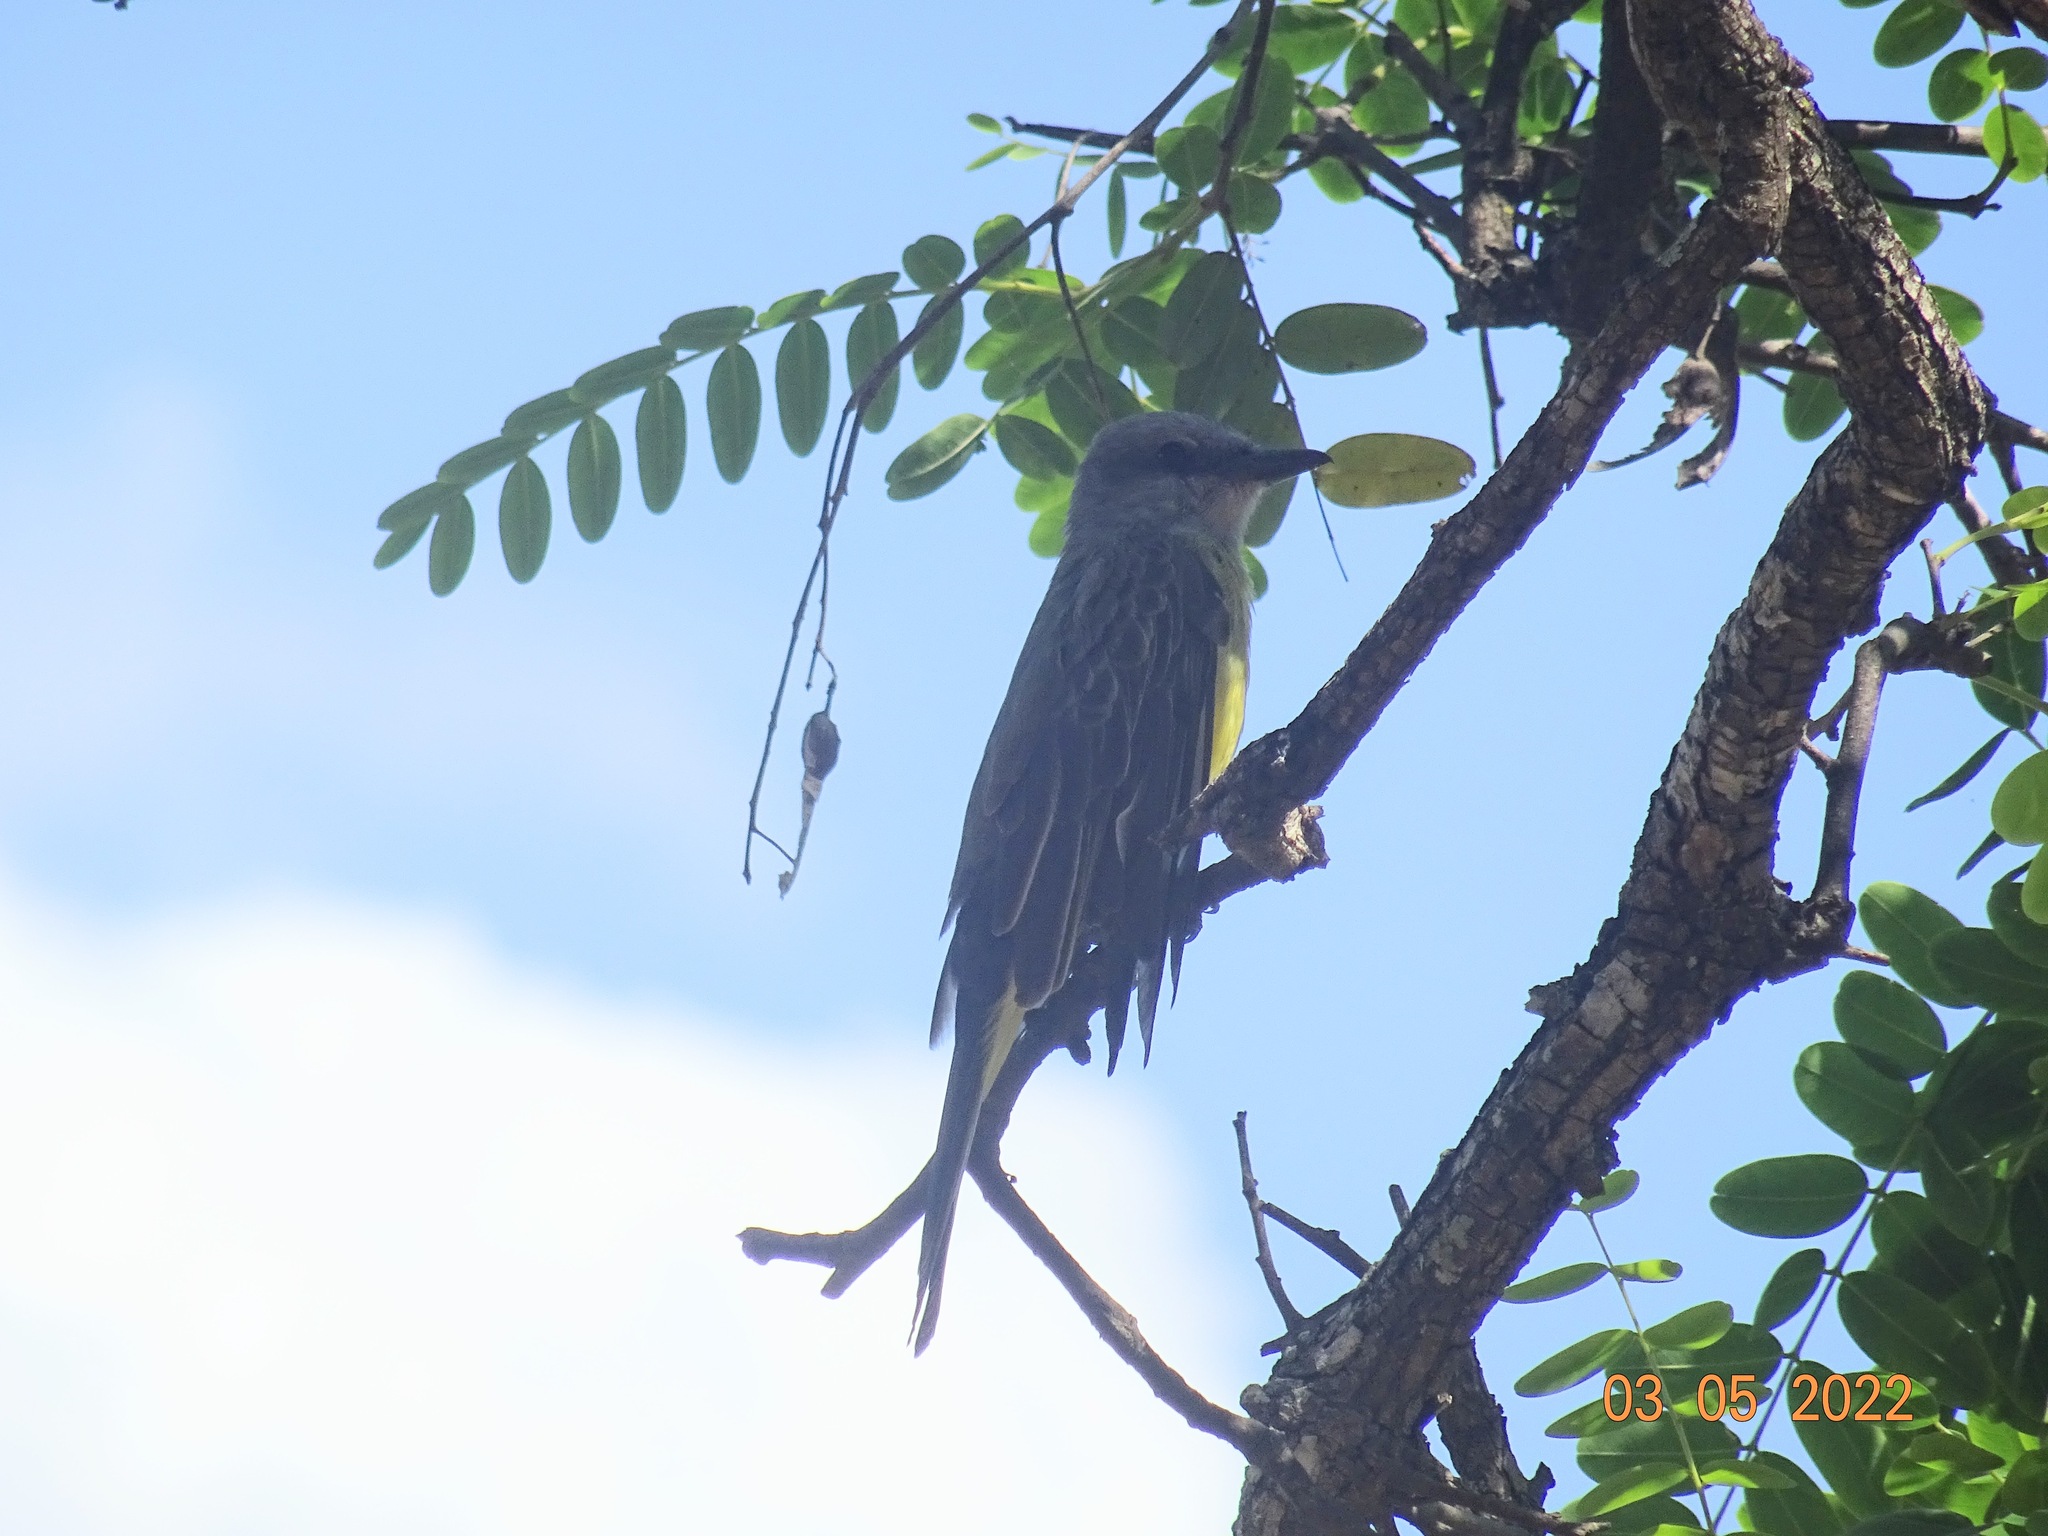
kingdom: Animalia
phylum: Chordata
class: Aves
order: Passeriformes
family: Tyrannidae
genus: Tyrannus
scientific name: Tyrannus melancholicus
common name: Tropical kingbird
